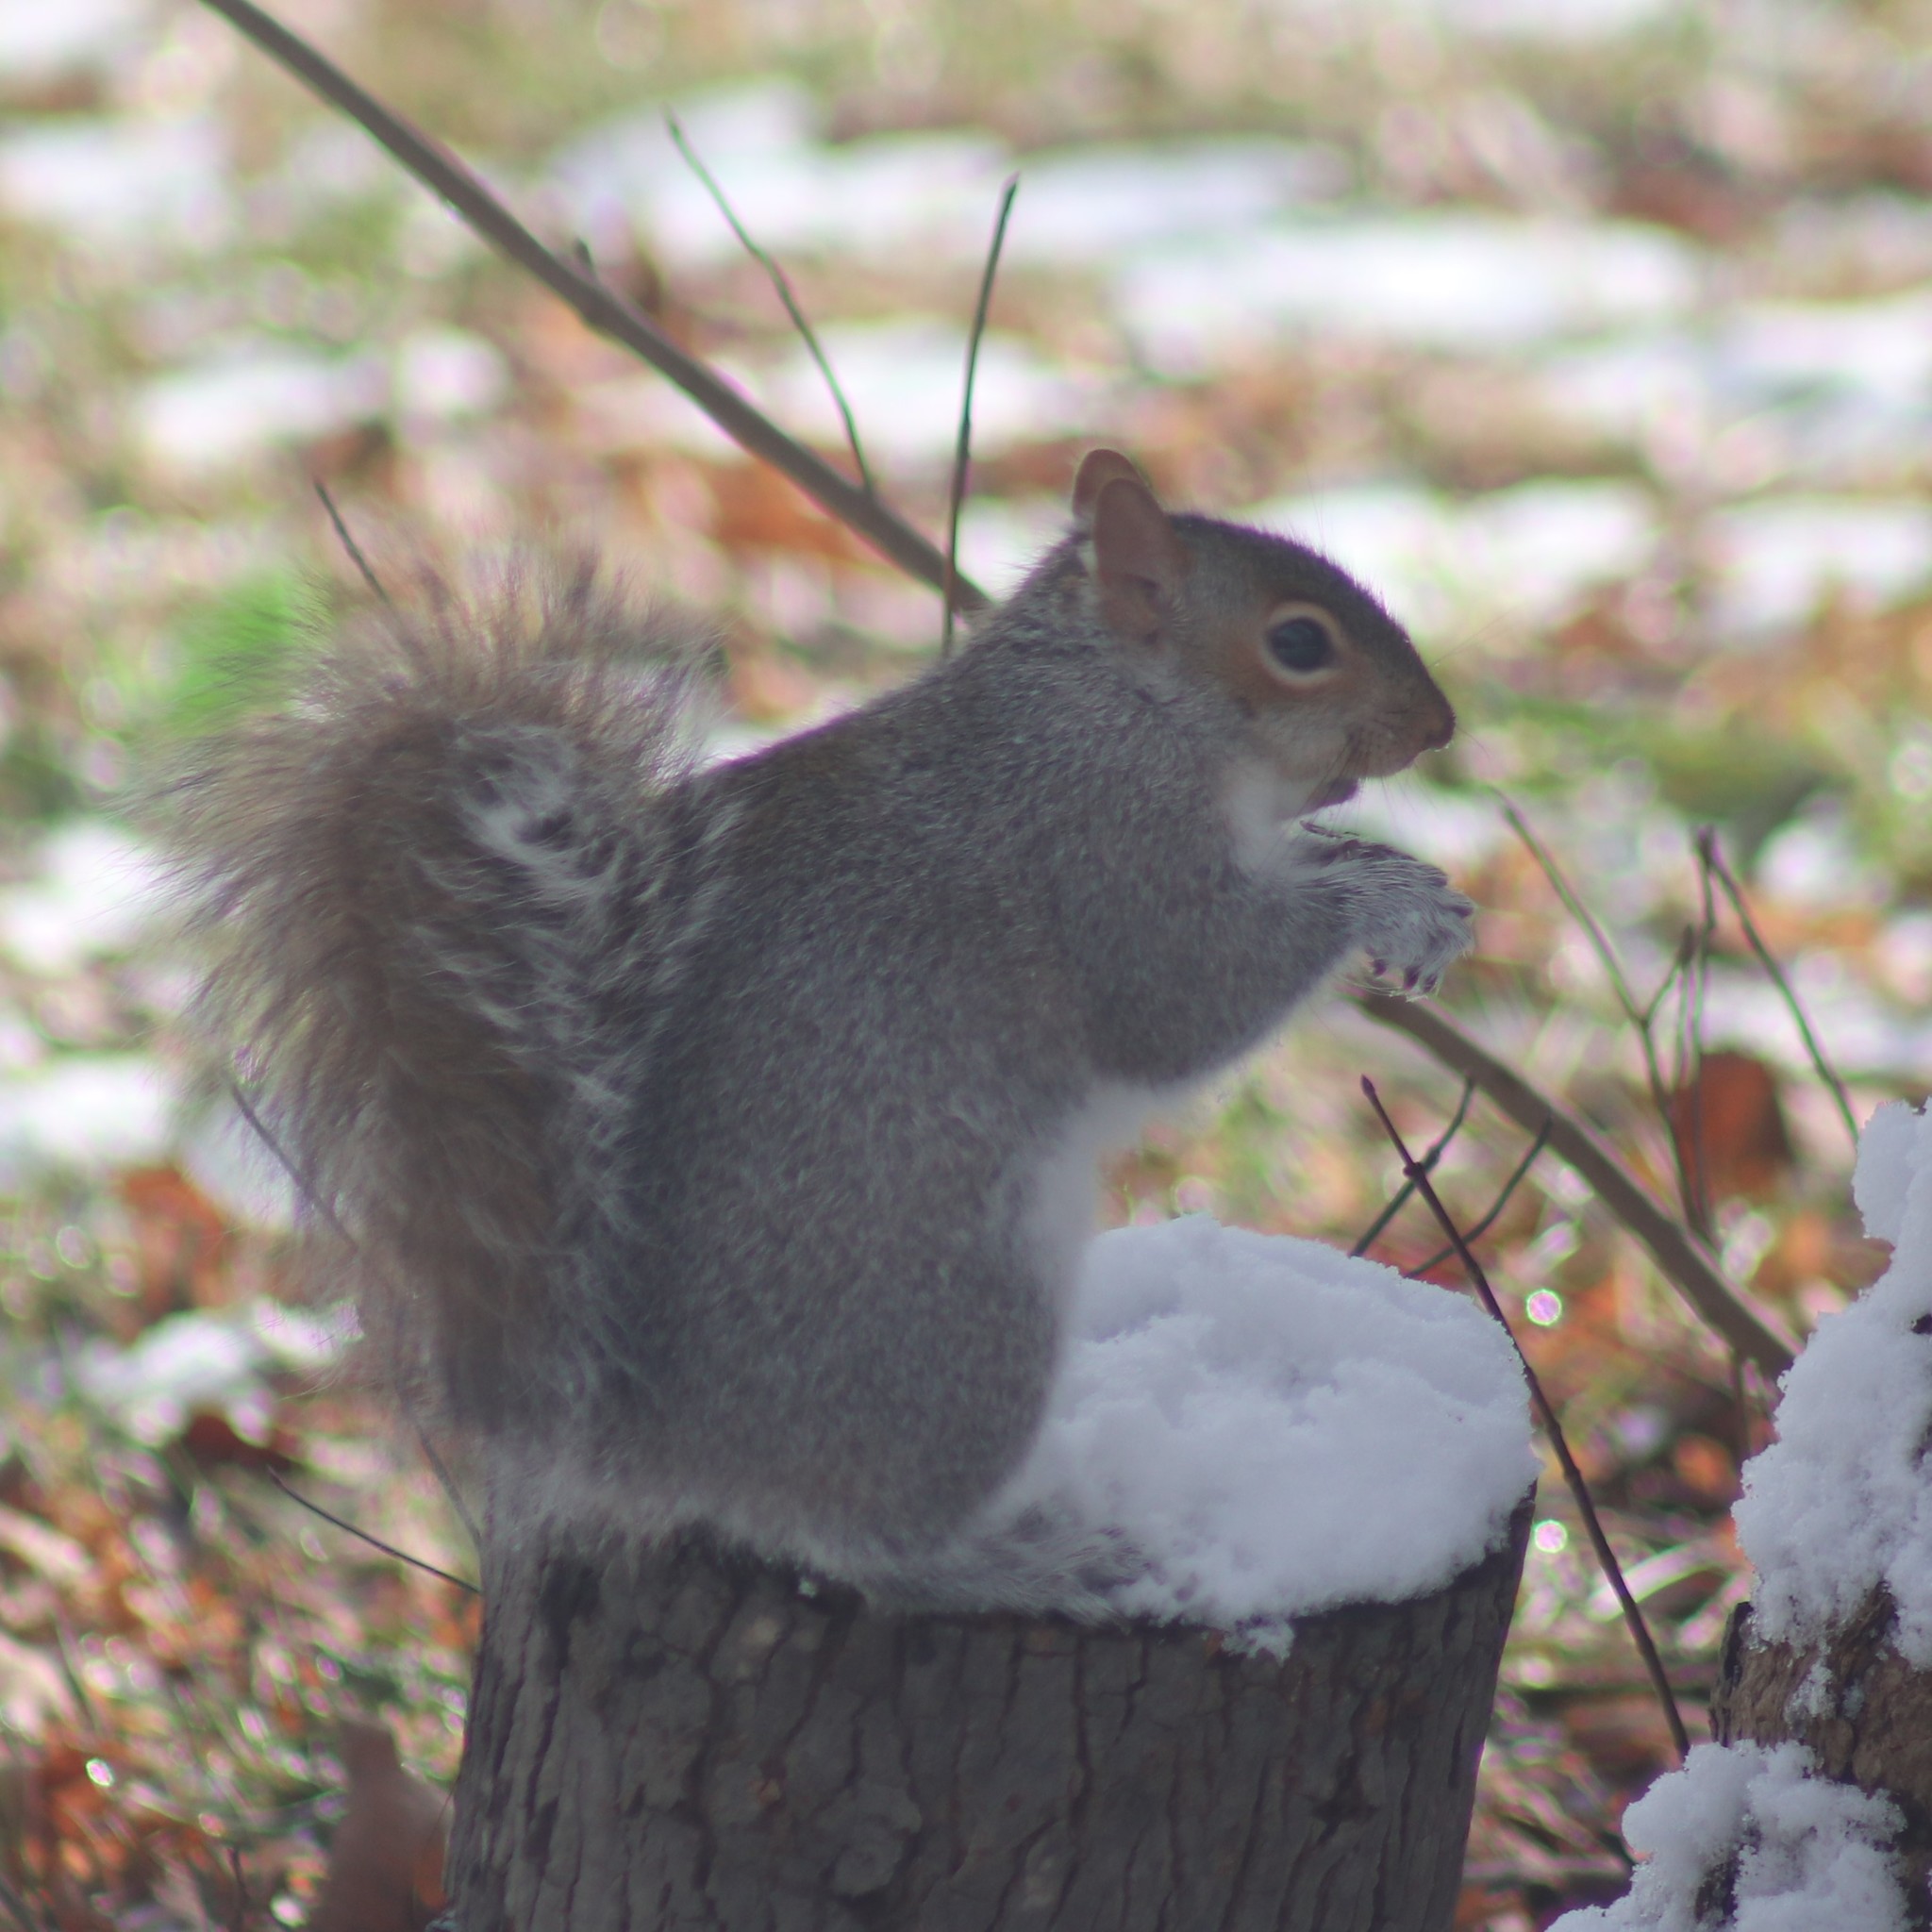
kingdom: Animalia
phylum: Chordata
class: Mammalia
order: Rodentia
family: Sciuridae
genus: Sciurus
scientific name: Sciurus carolinensis
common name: Eastern gray squirrel
